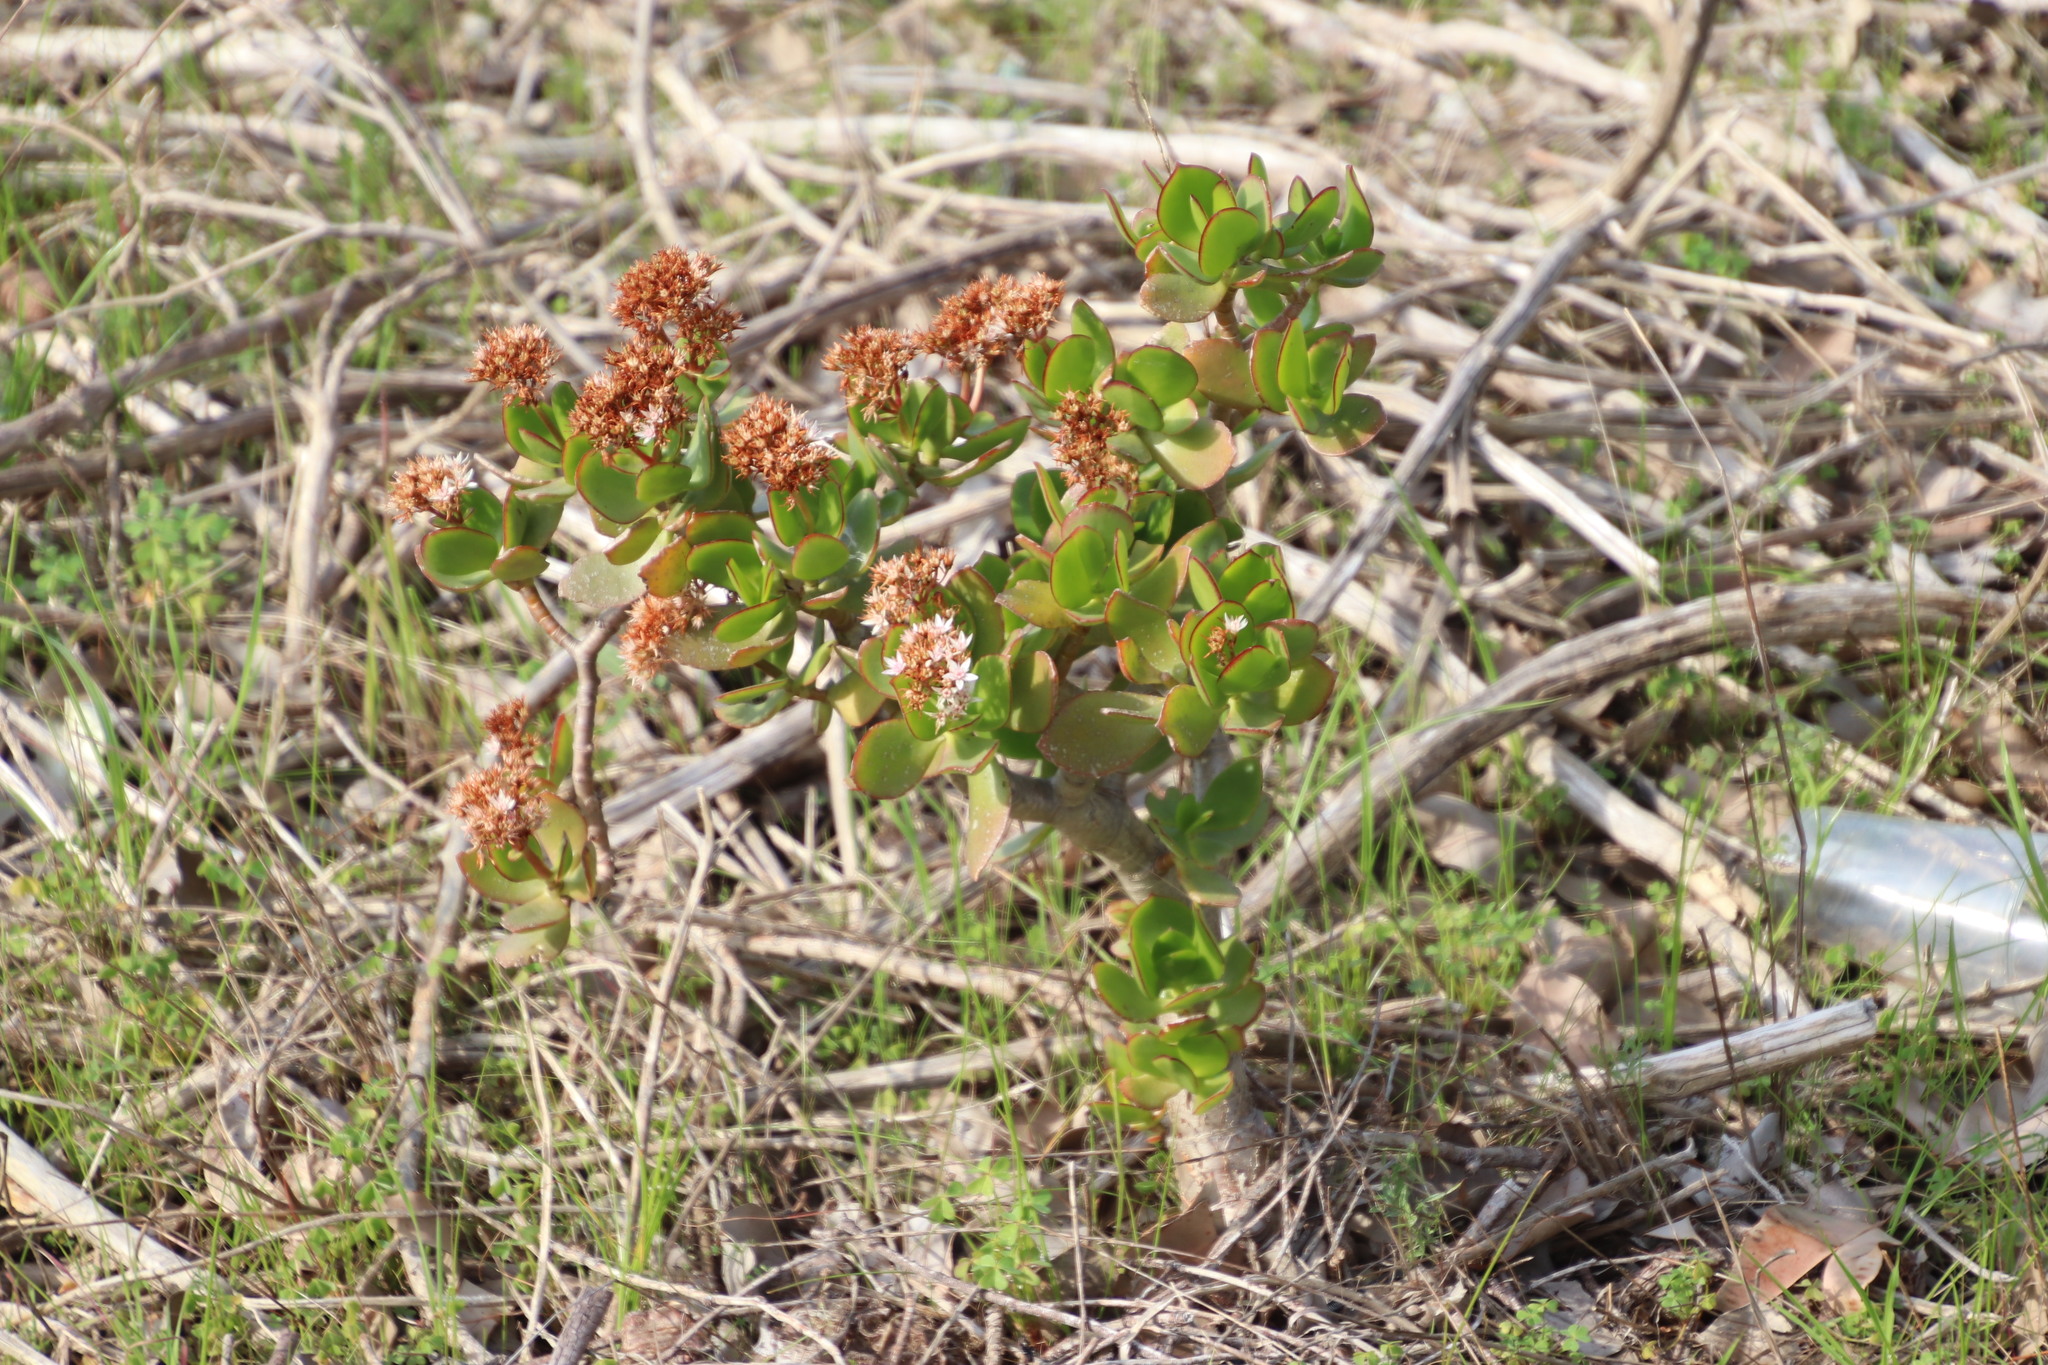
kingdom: Plantae
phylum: Tracheophyta
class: Magnoliopsida
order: Saxifragales
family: Crassulaceae
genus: Crassula
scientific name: Crassula ovata
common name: Jade plant
